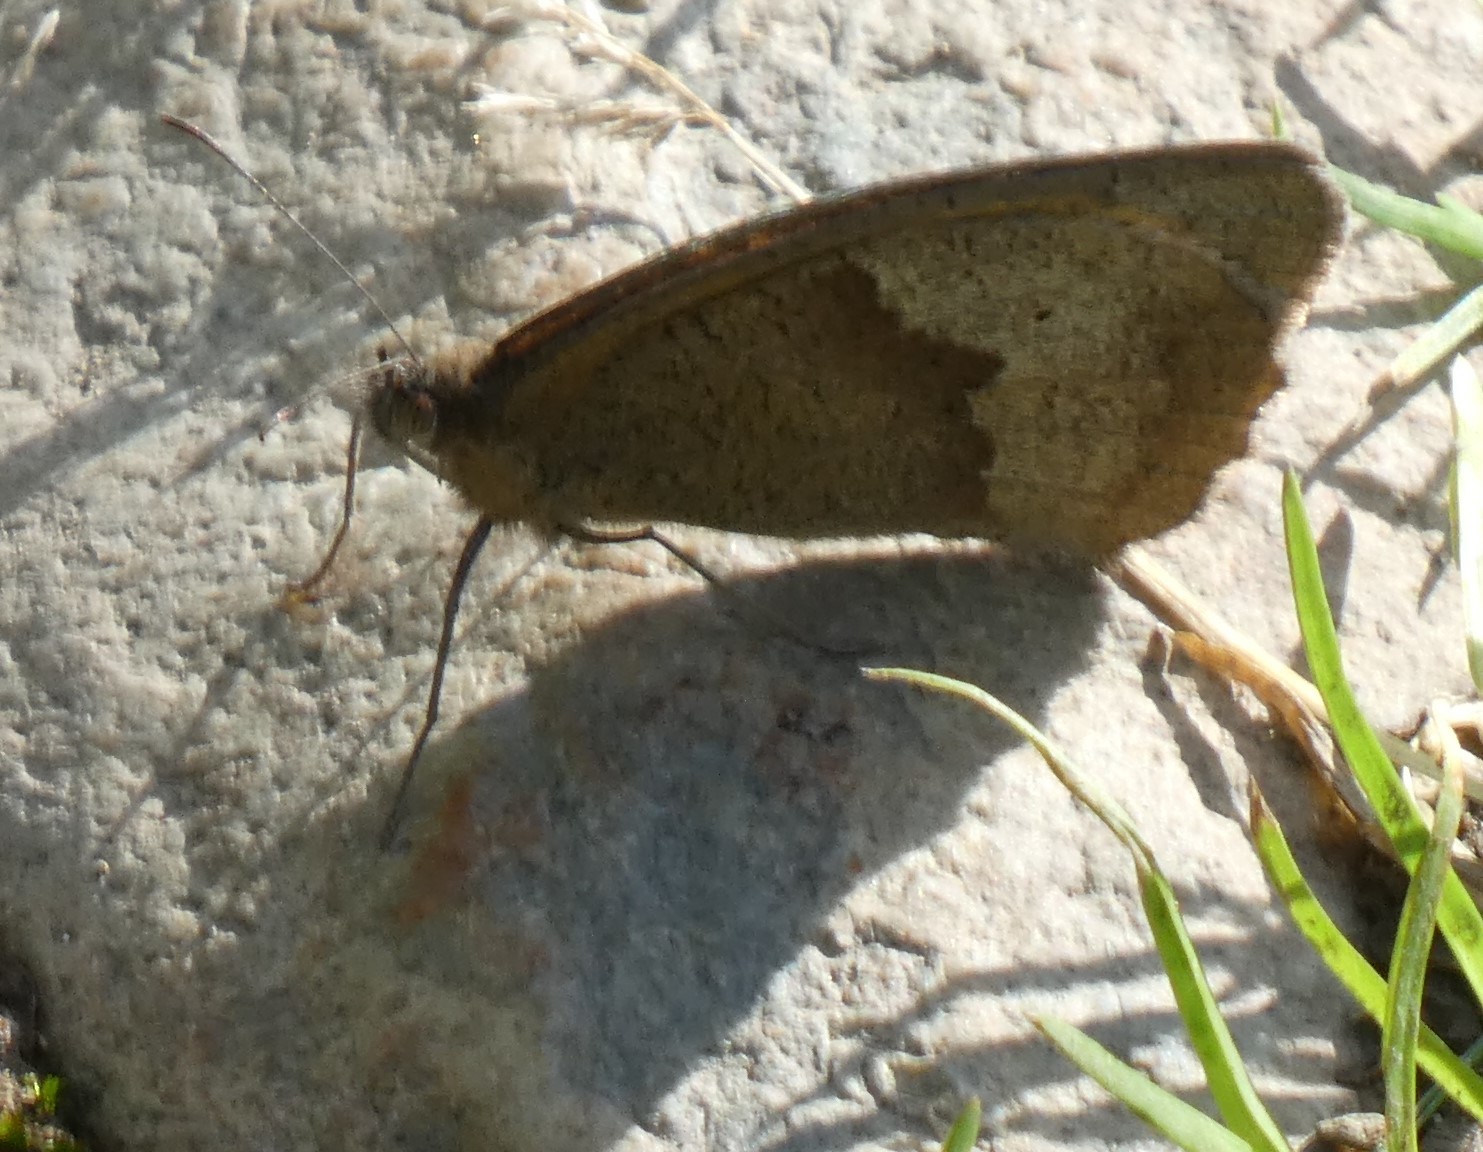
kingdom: Animalia
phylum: Arthropoda
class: Insecta
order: Lepidoptera
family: Nymphalidae
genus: Maniola
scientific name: Maniola jurtina
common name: Meadow brown
